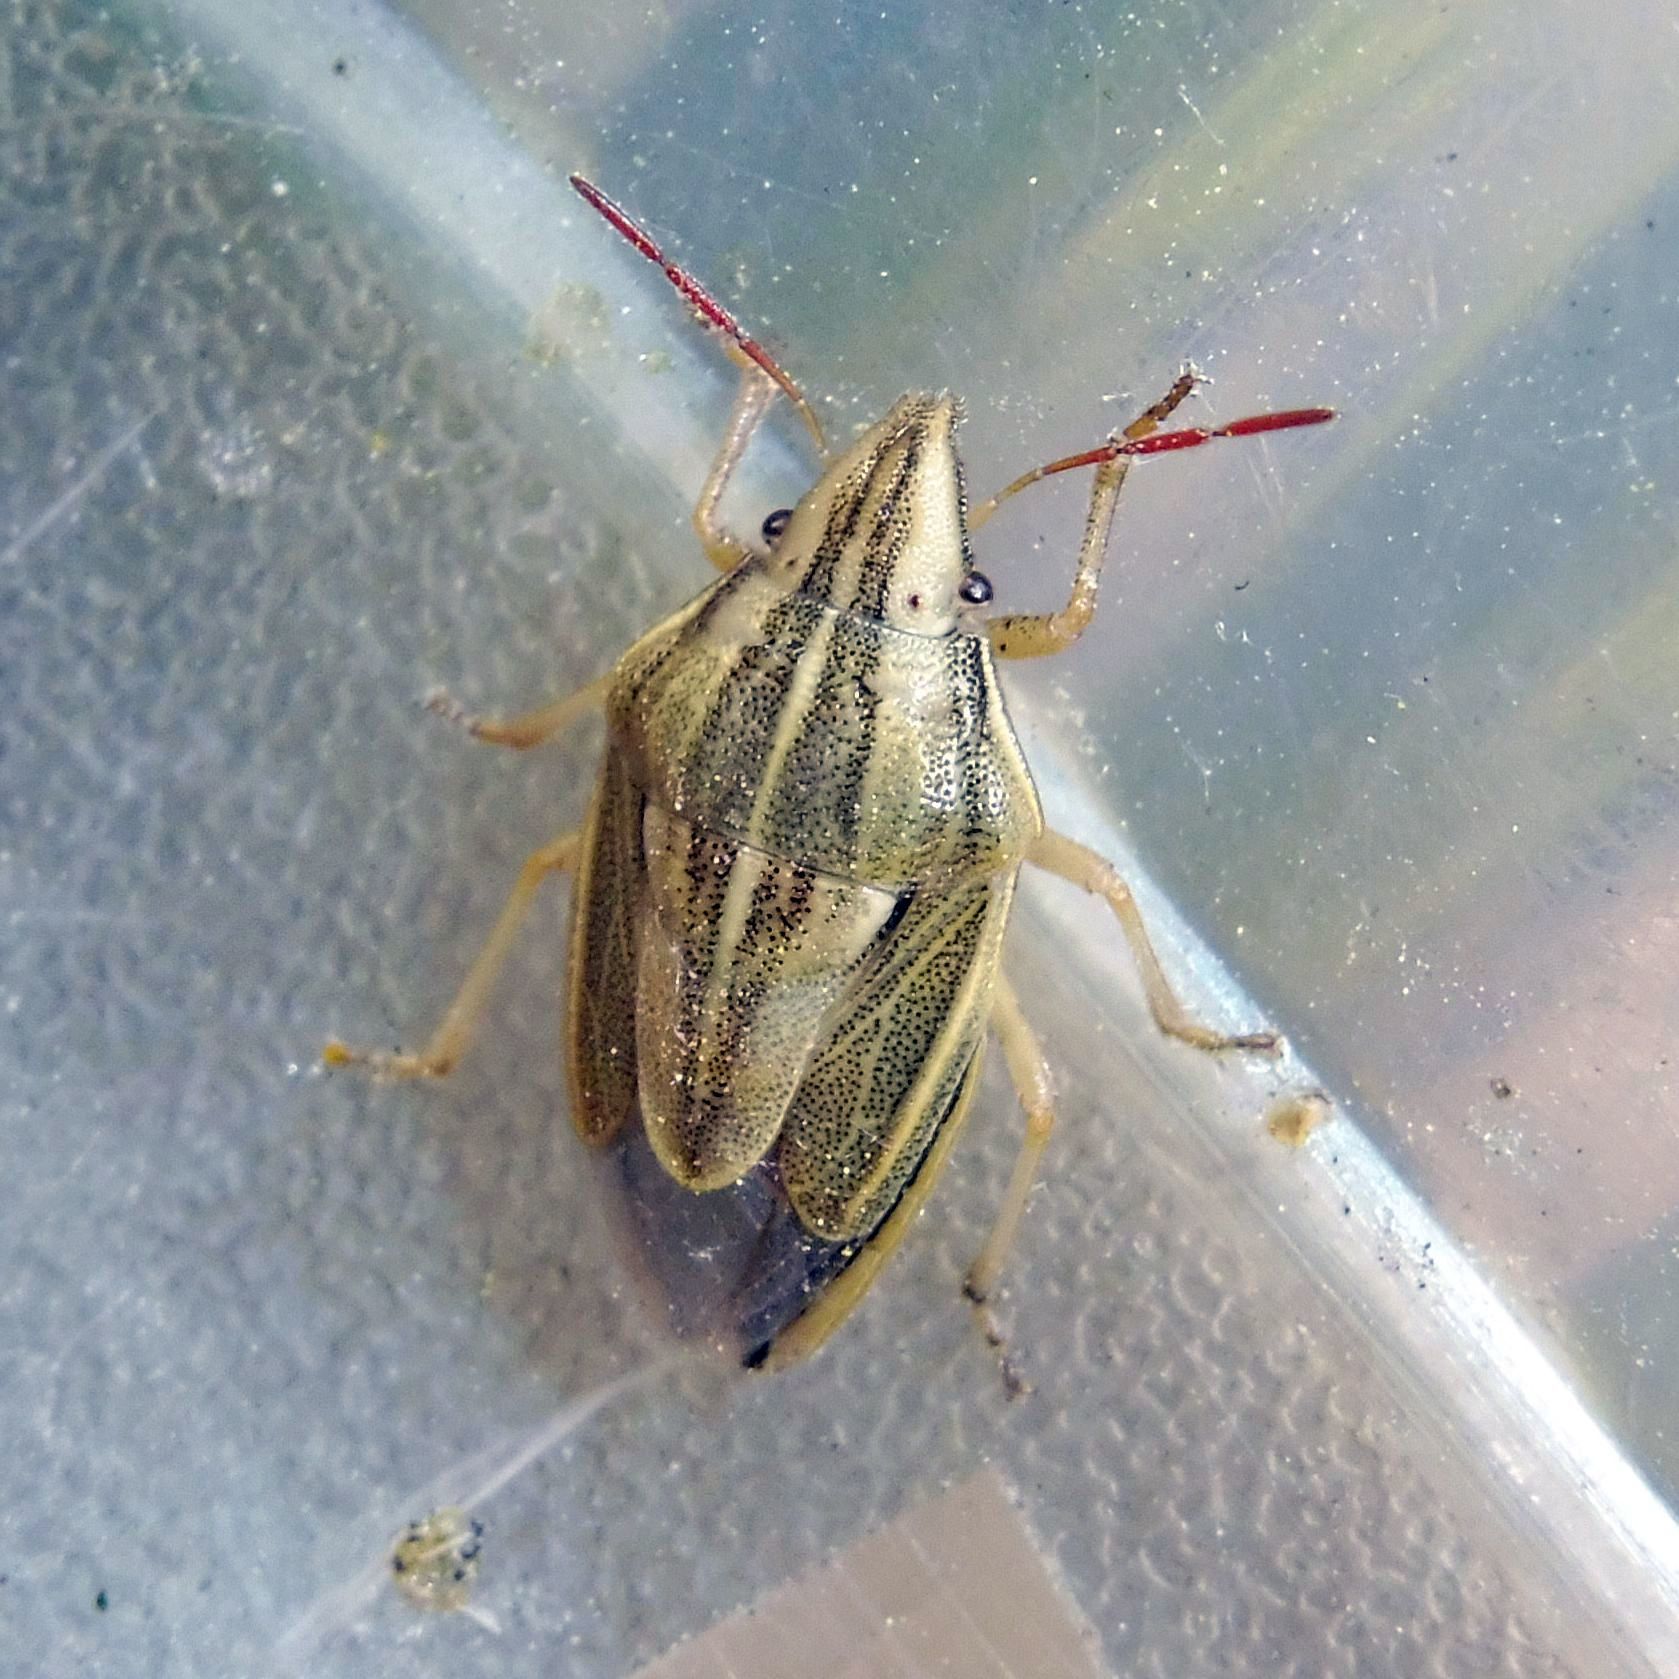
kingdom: Animalia
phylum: Arthropoda
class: Insecta
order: Hemiptera
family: Pentatomidae
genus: Aelia
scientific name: Aelia acuminata
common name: Bishop's mitre
